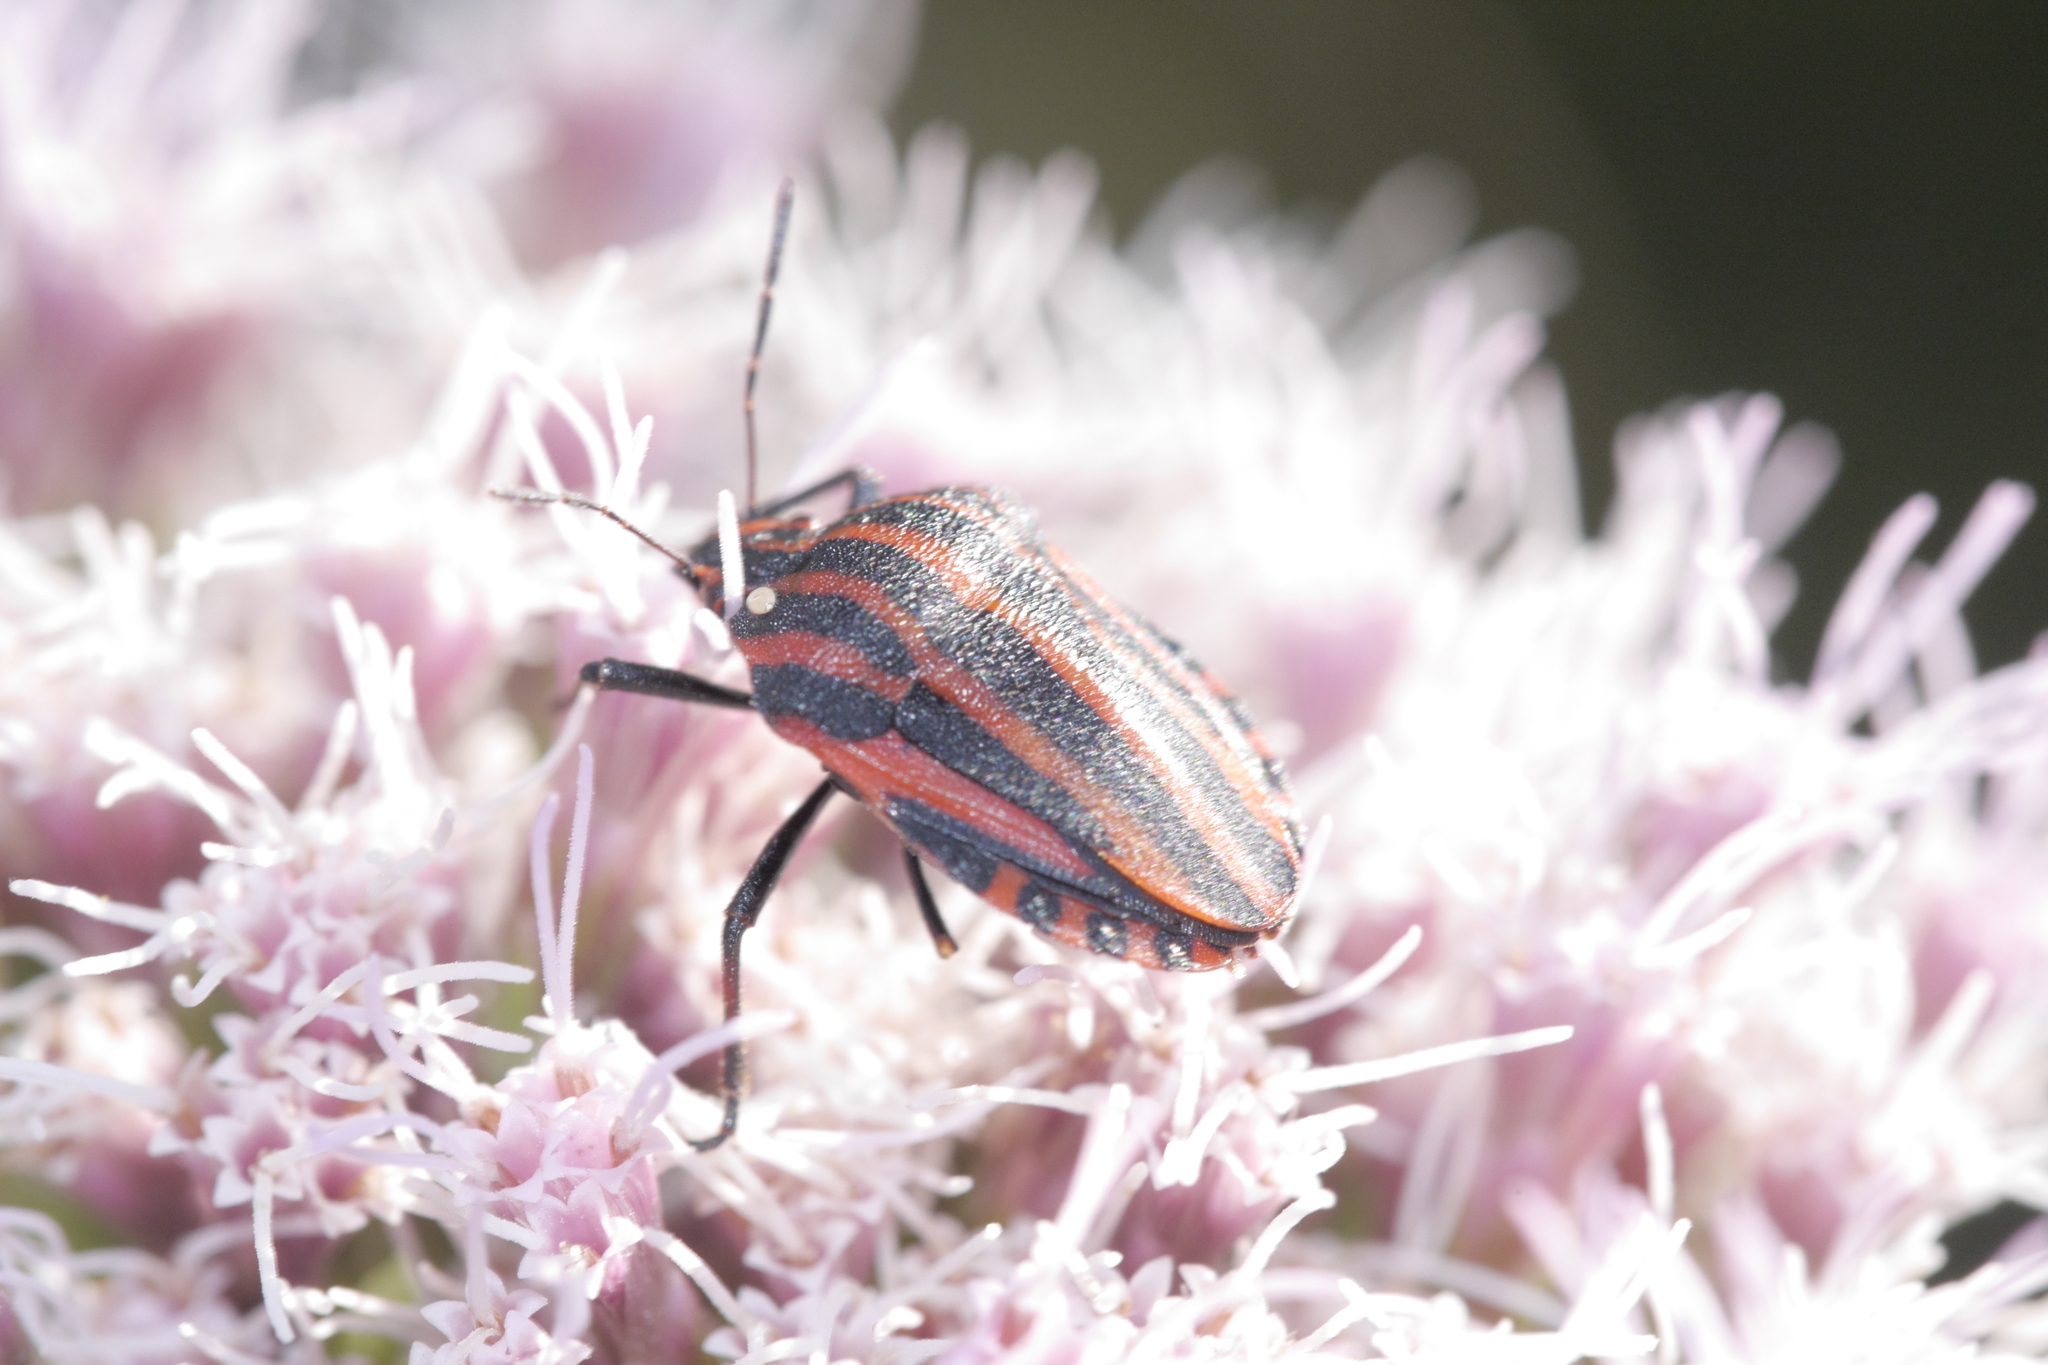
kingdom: Animalia
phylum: Arthropoda
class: Insecta
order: Hemiptera
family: Pentatomidae
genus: Graphosoma
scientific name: Graphosoma italicum
